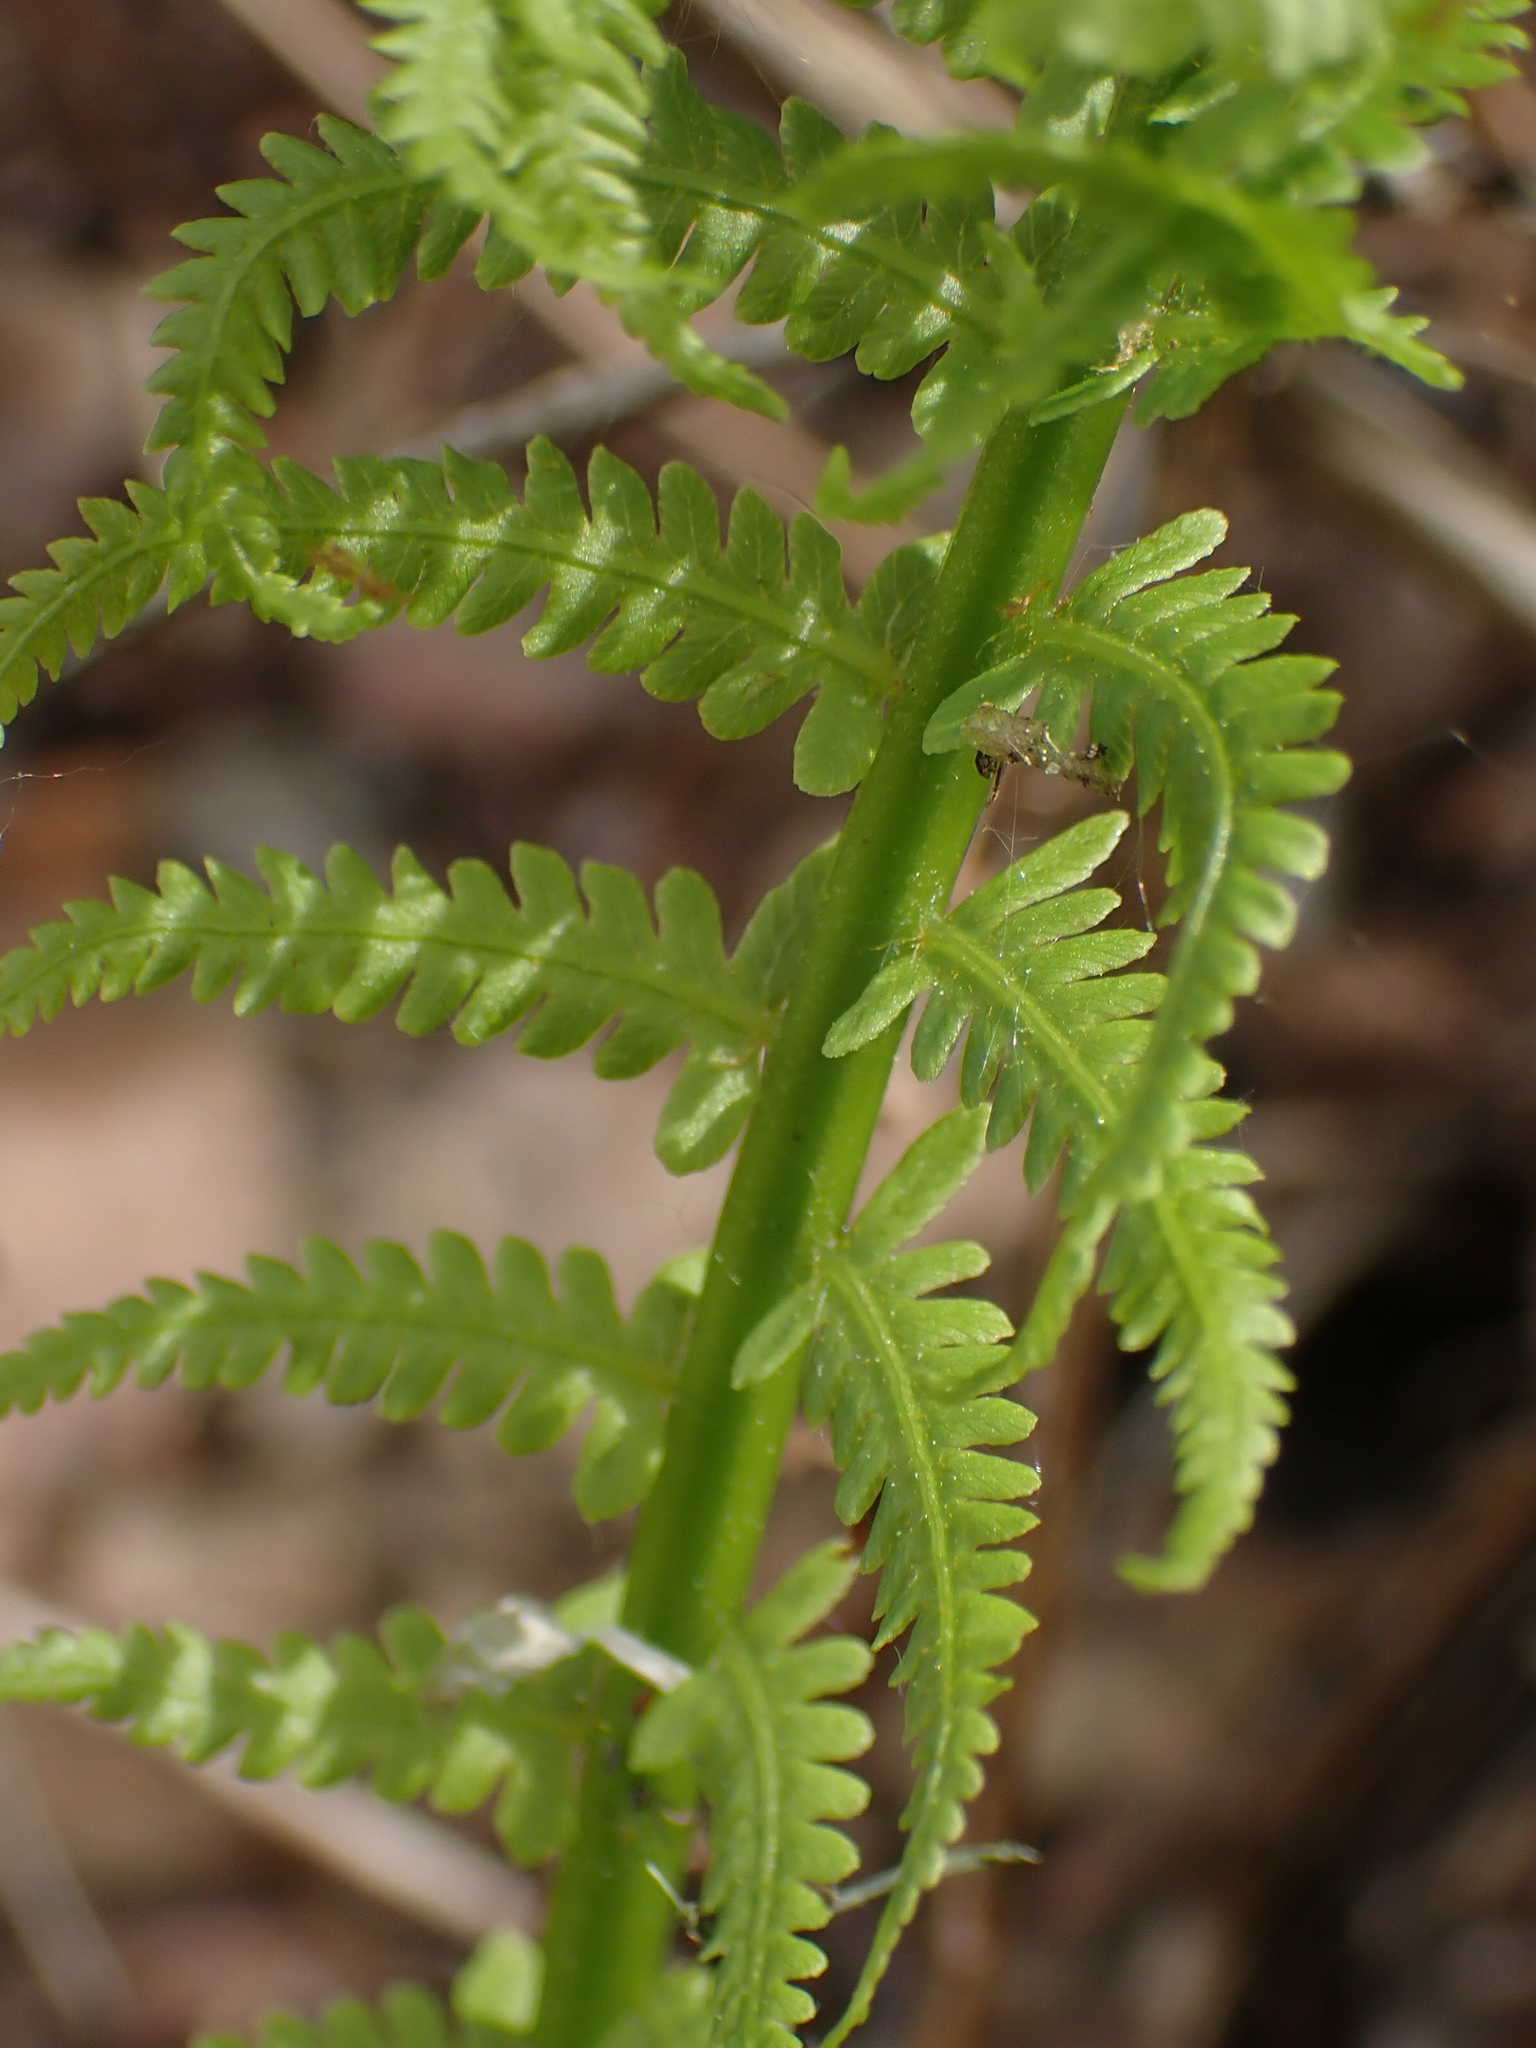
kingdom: Plantae
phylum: Tracheophyta
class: Polypodiopsida
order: Polypodiales
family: Onocleaceae
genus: Matteuccia
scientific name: Matteuccia struthiopteris
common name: Ostrich fern
